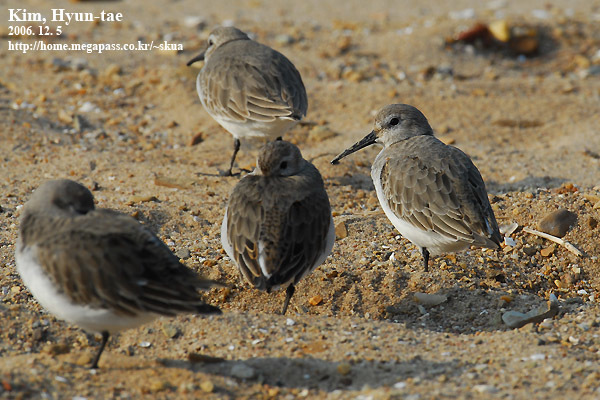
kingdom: Animalia
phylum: Chordata
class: Aves
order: Charadriiformes
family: Scolopacidae
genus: Calidris
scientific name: Calidris alpina
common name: Dunlin
